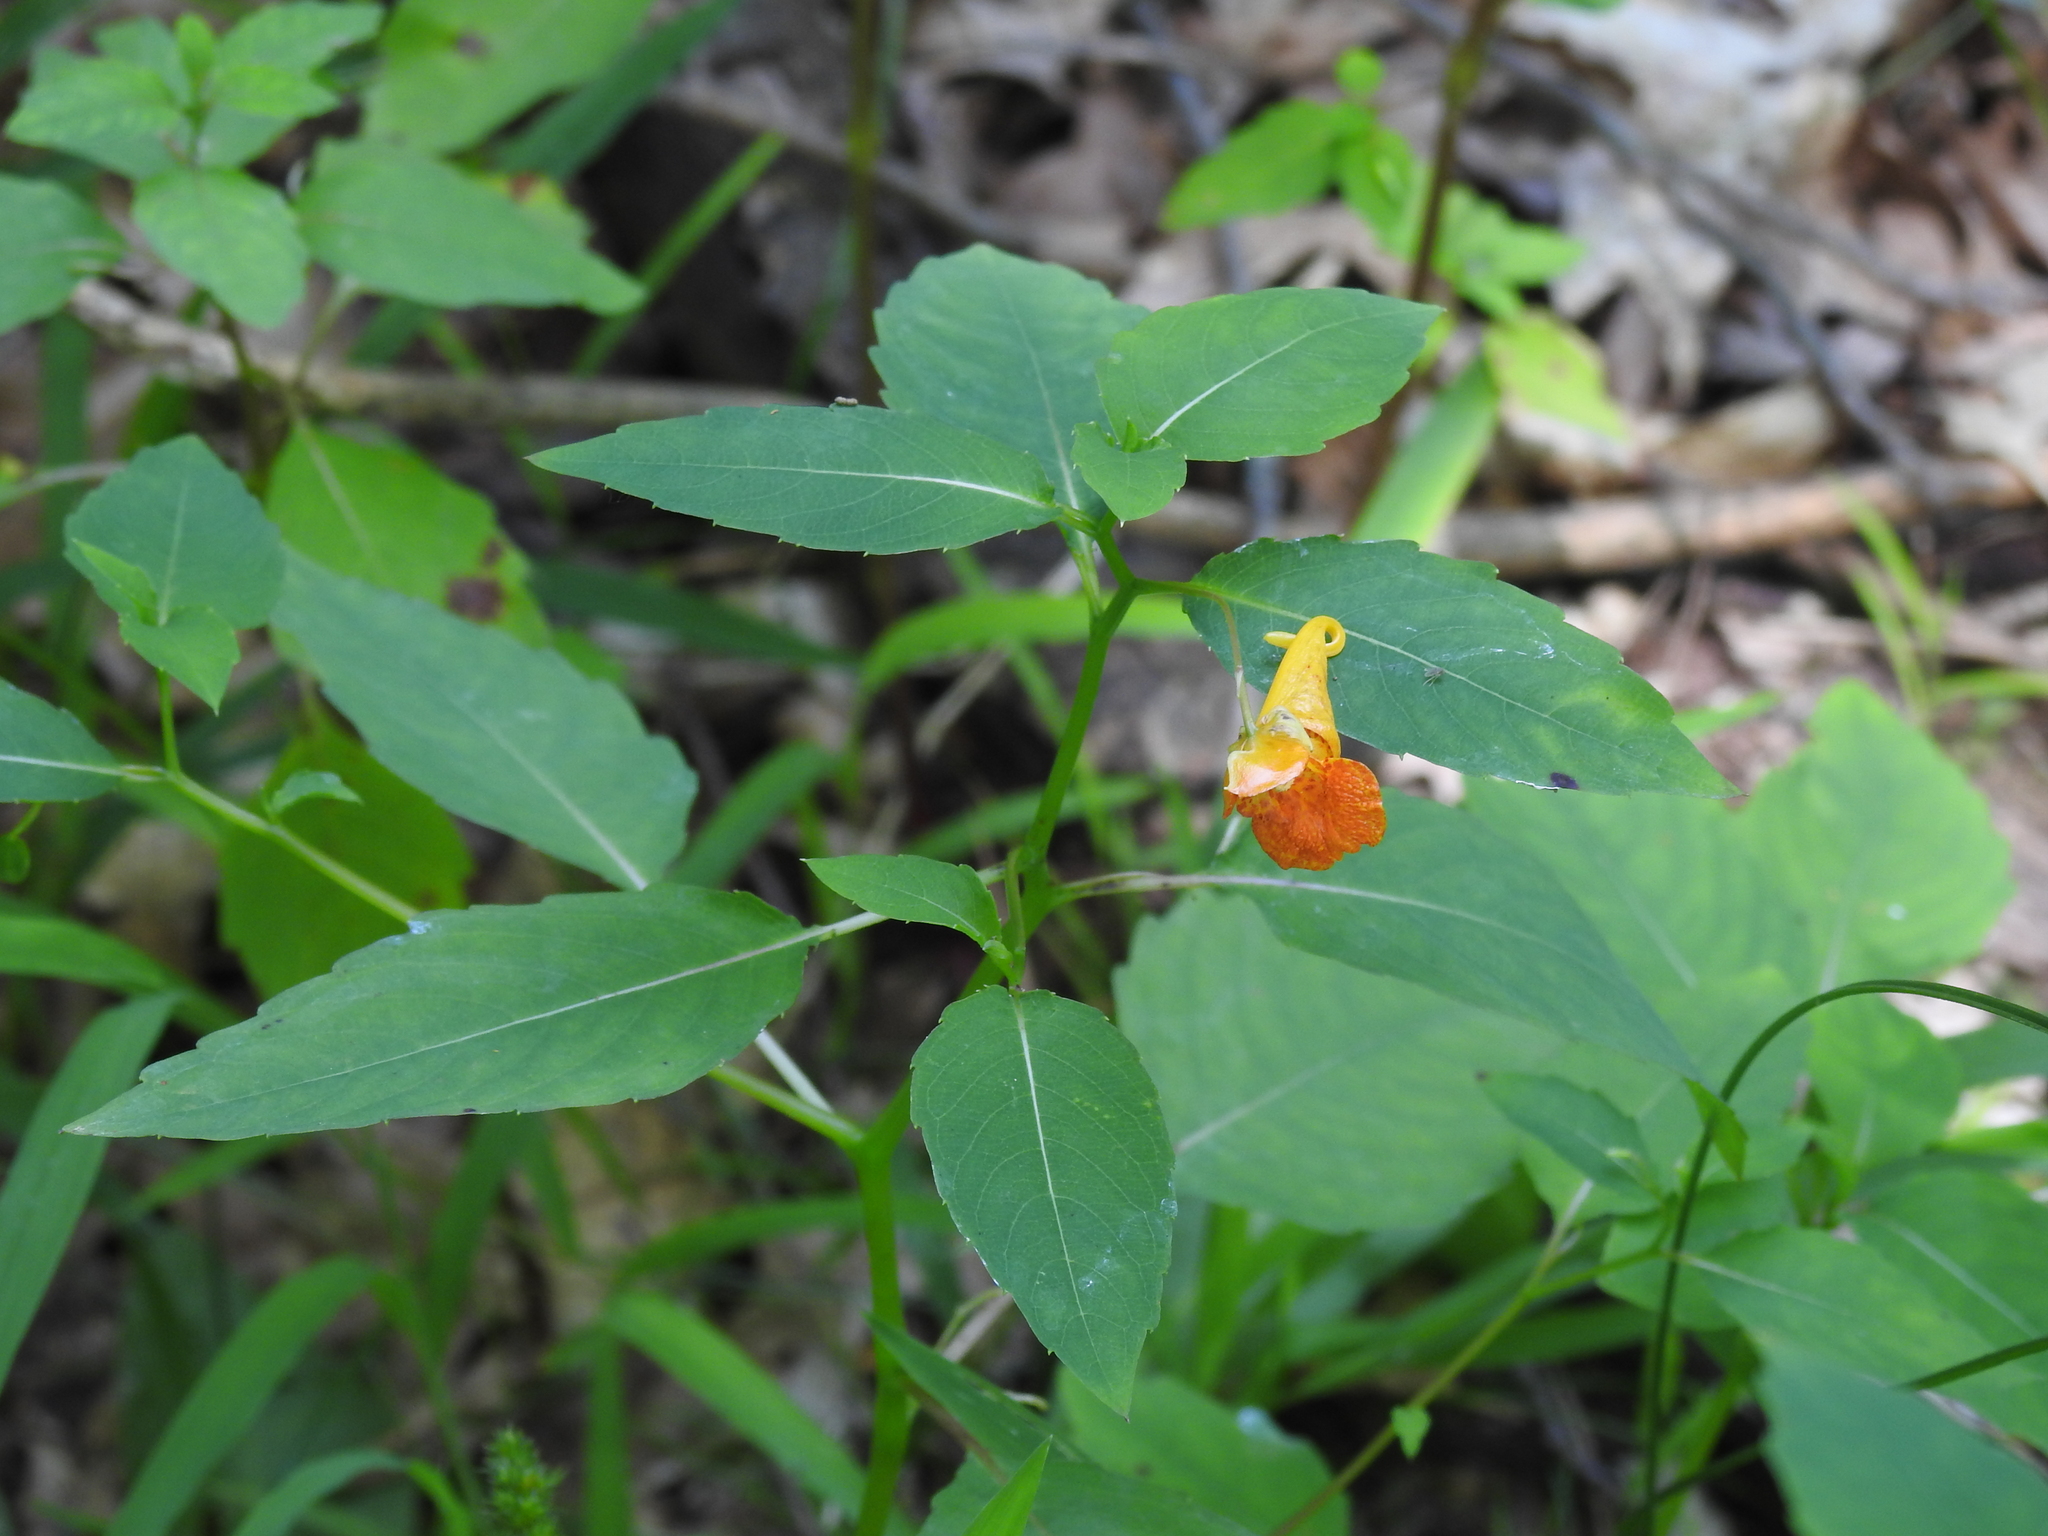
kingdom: Plantae
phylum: Tracheophyta
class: Magnoliopsida
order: Ericales
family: Balsaminaceae
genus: Impatiens
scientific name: Impatiens capensis
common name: Orange balsam
